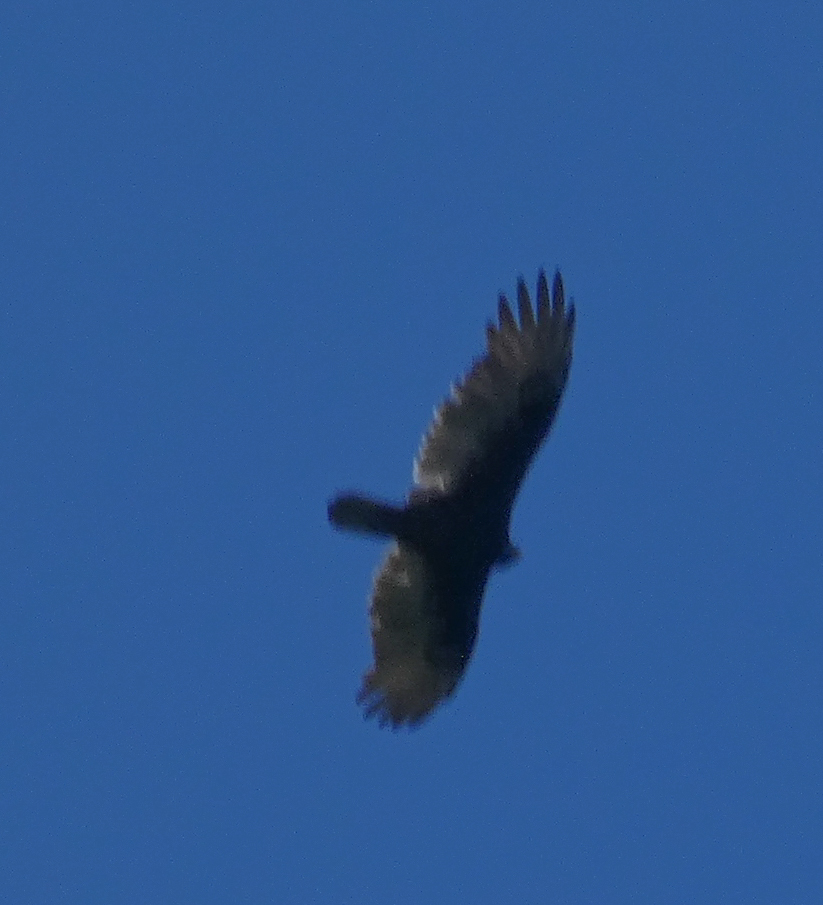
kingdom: Animalia
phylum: Chordata
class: Aves
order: Accipitriformes
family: Cathartidae
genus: Cathartes
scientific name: Cathartes aura
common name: Turkey vulture
